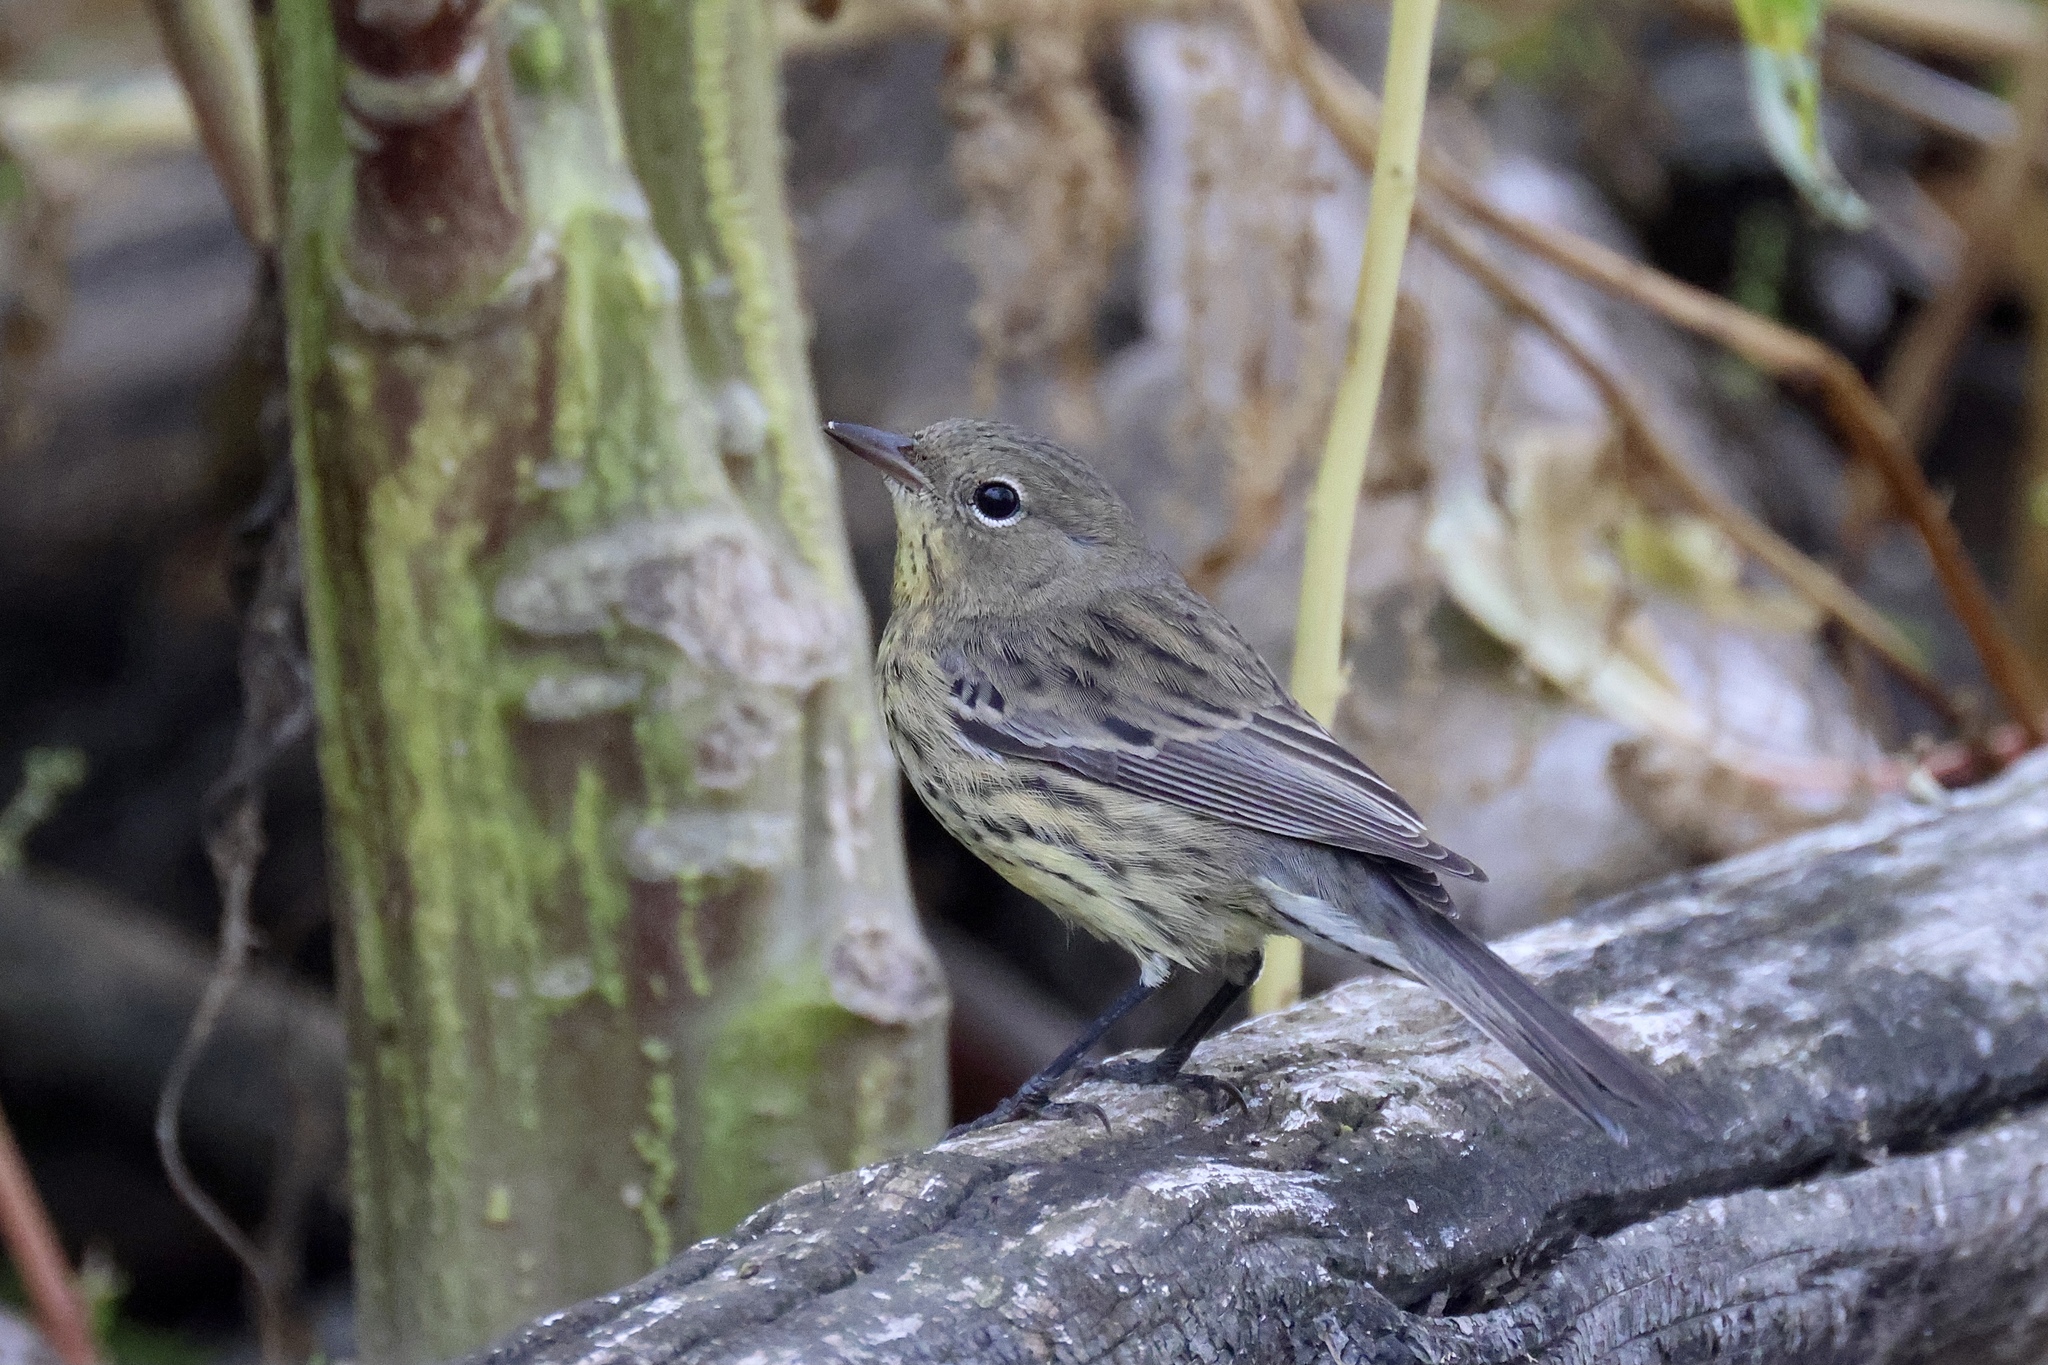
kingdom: Animalia
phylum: Chordata
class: Aves
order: Passeriformes
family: Parulidae
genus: Setophaga
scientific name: Setophaga kirtlandii
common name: Kirtland's warbler
